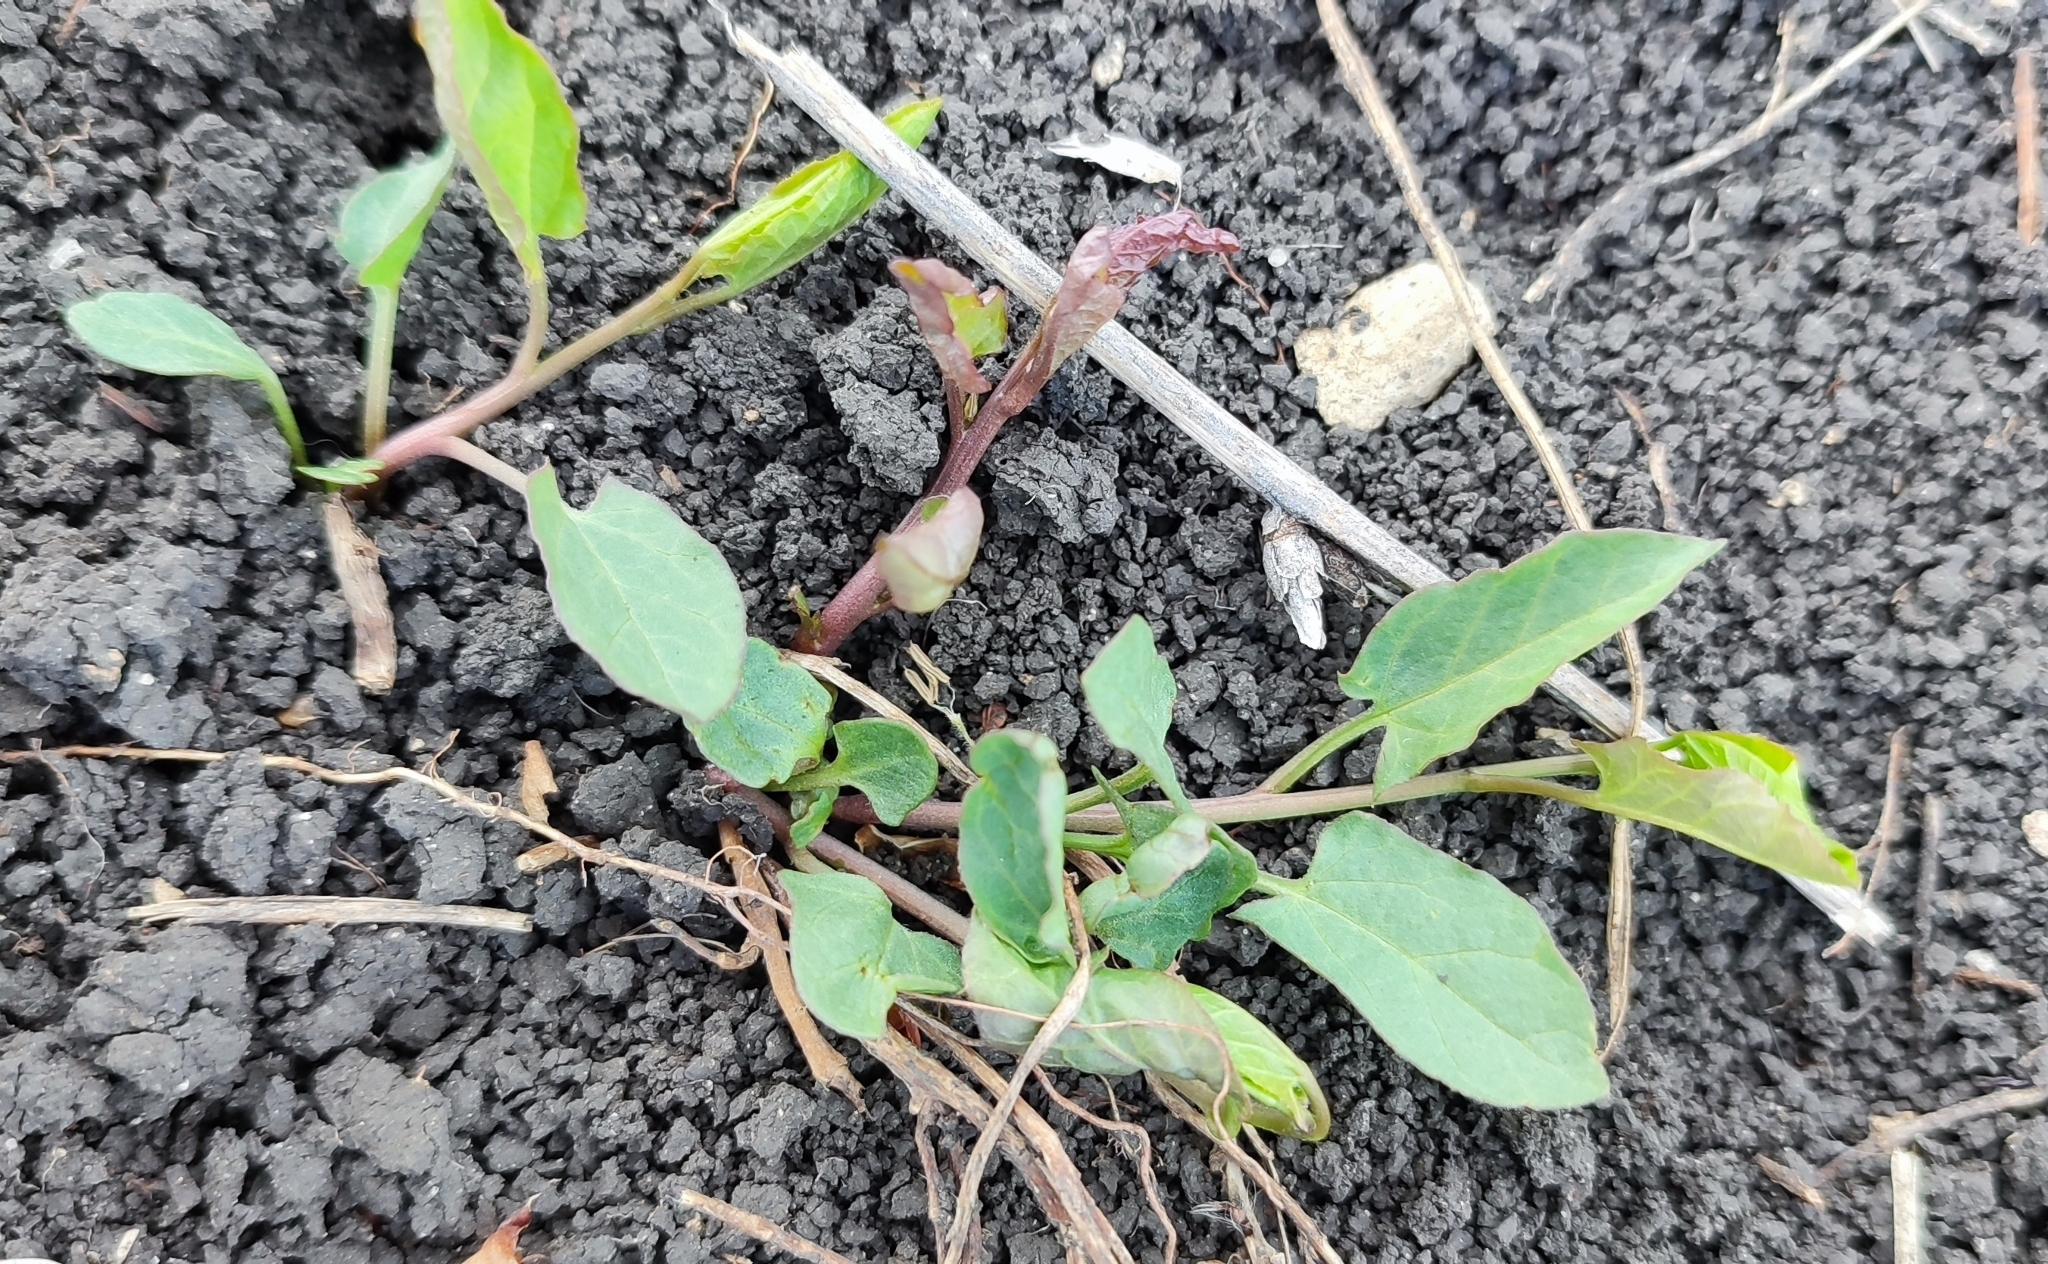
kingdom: Plantae
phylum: Tracheophyta
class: Magnoliopsida
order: Solanales
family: Convolvulaceae
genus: Convolvulus
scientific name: Convolvulus arvensis
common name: Field bindweed
